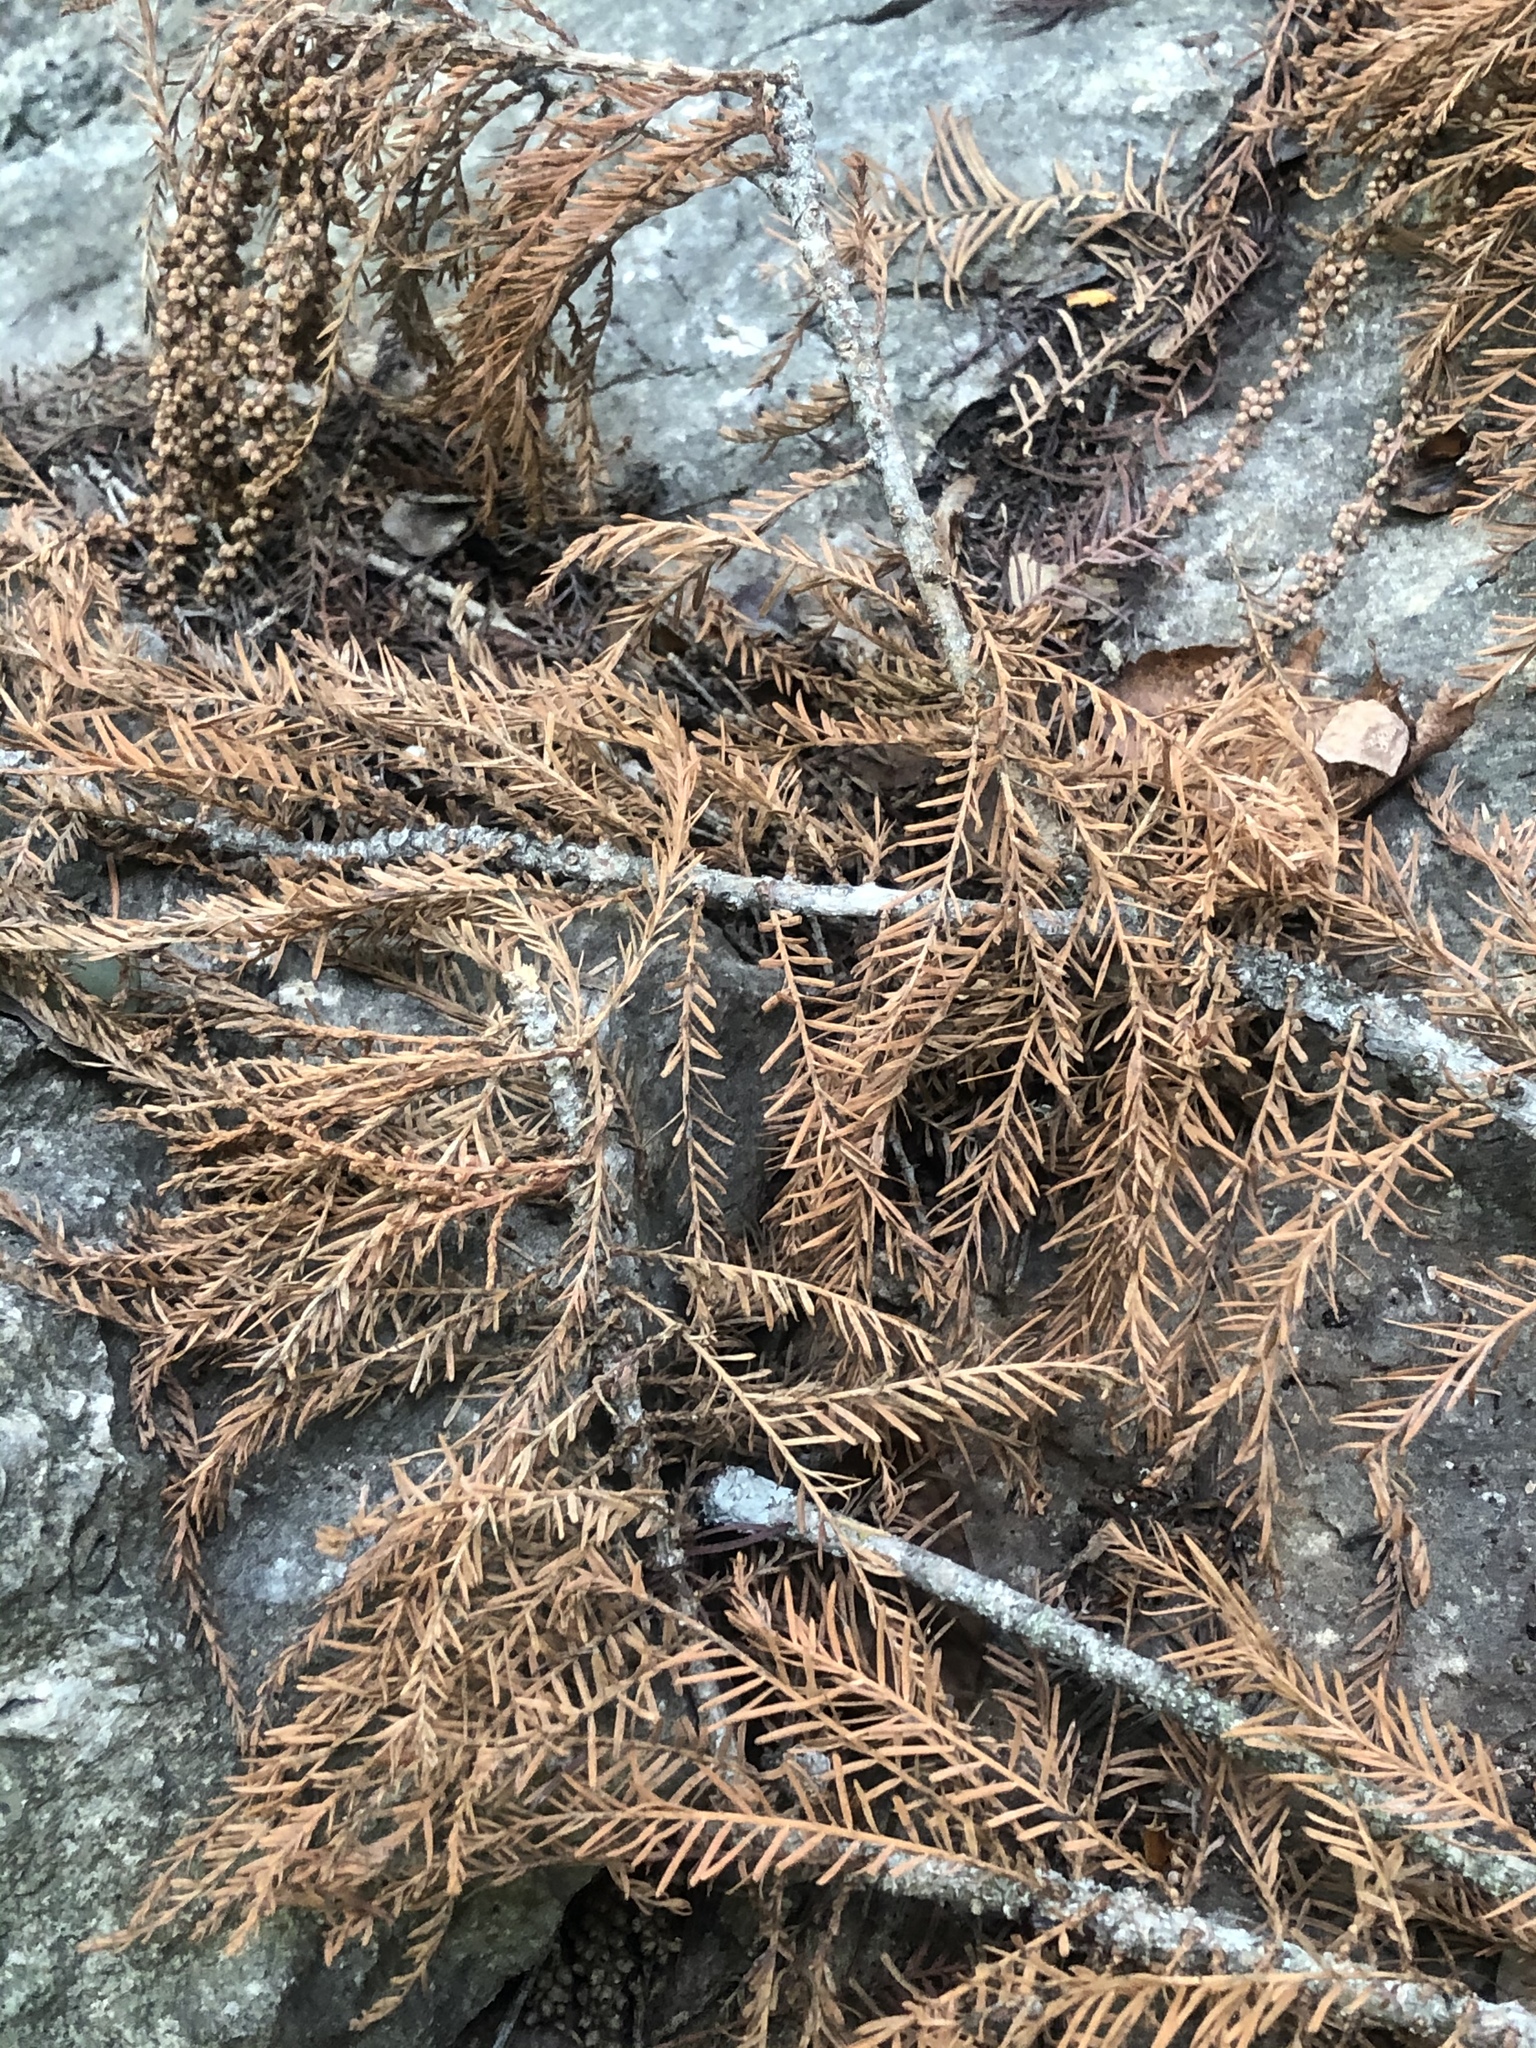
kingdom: Plantae
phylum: Tracheophyta
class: Pinopsida
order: Pinales
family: Cupressaceae
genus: Taxodium
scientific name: Taxodium distichum
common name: Bald cypress
